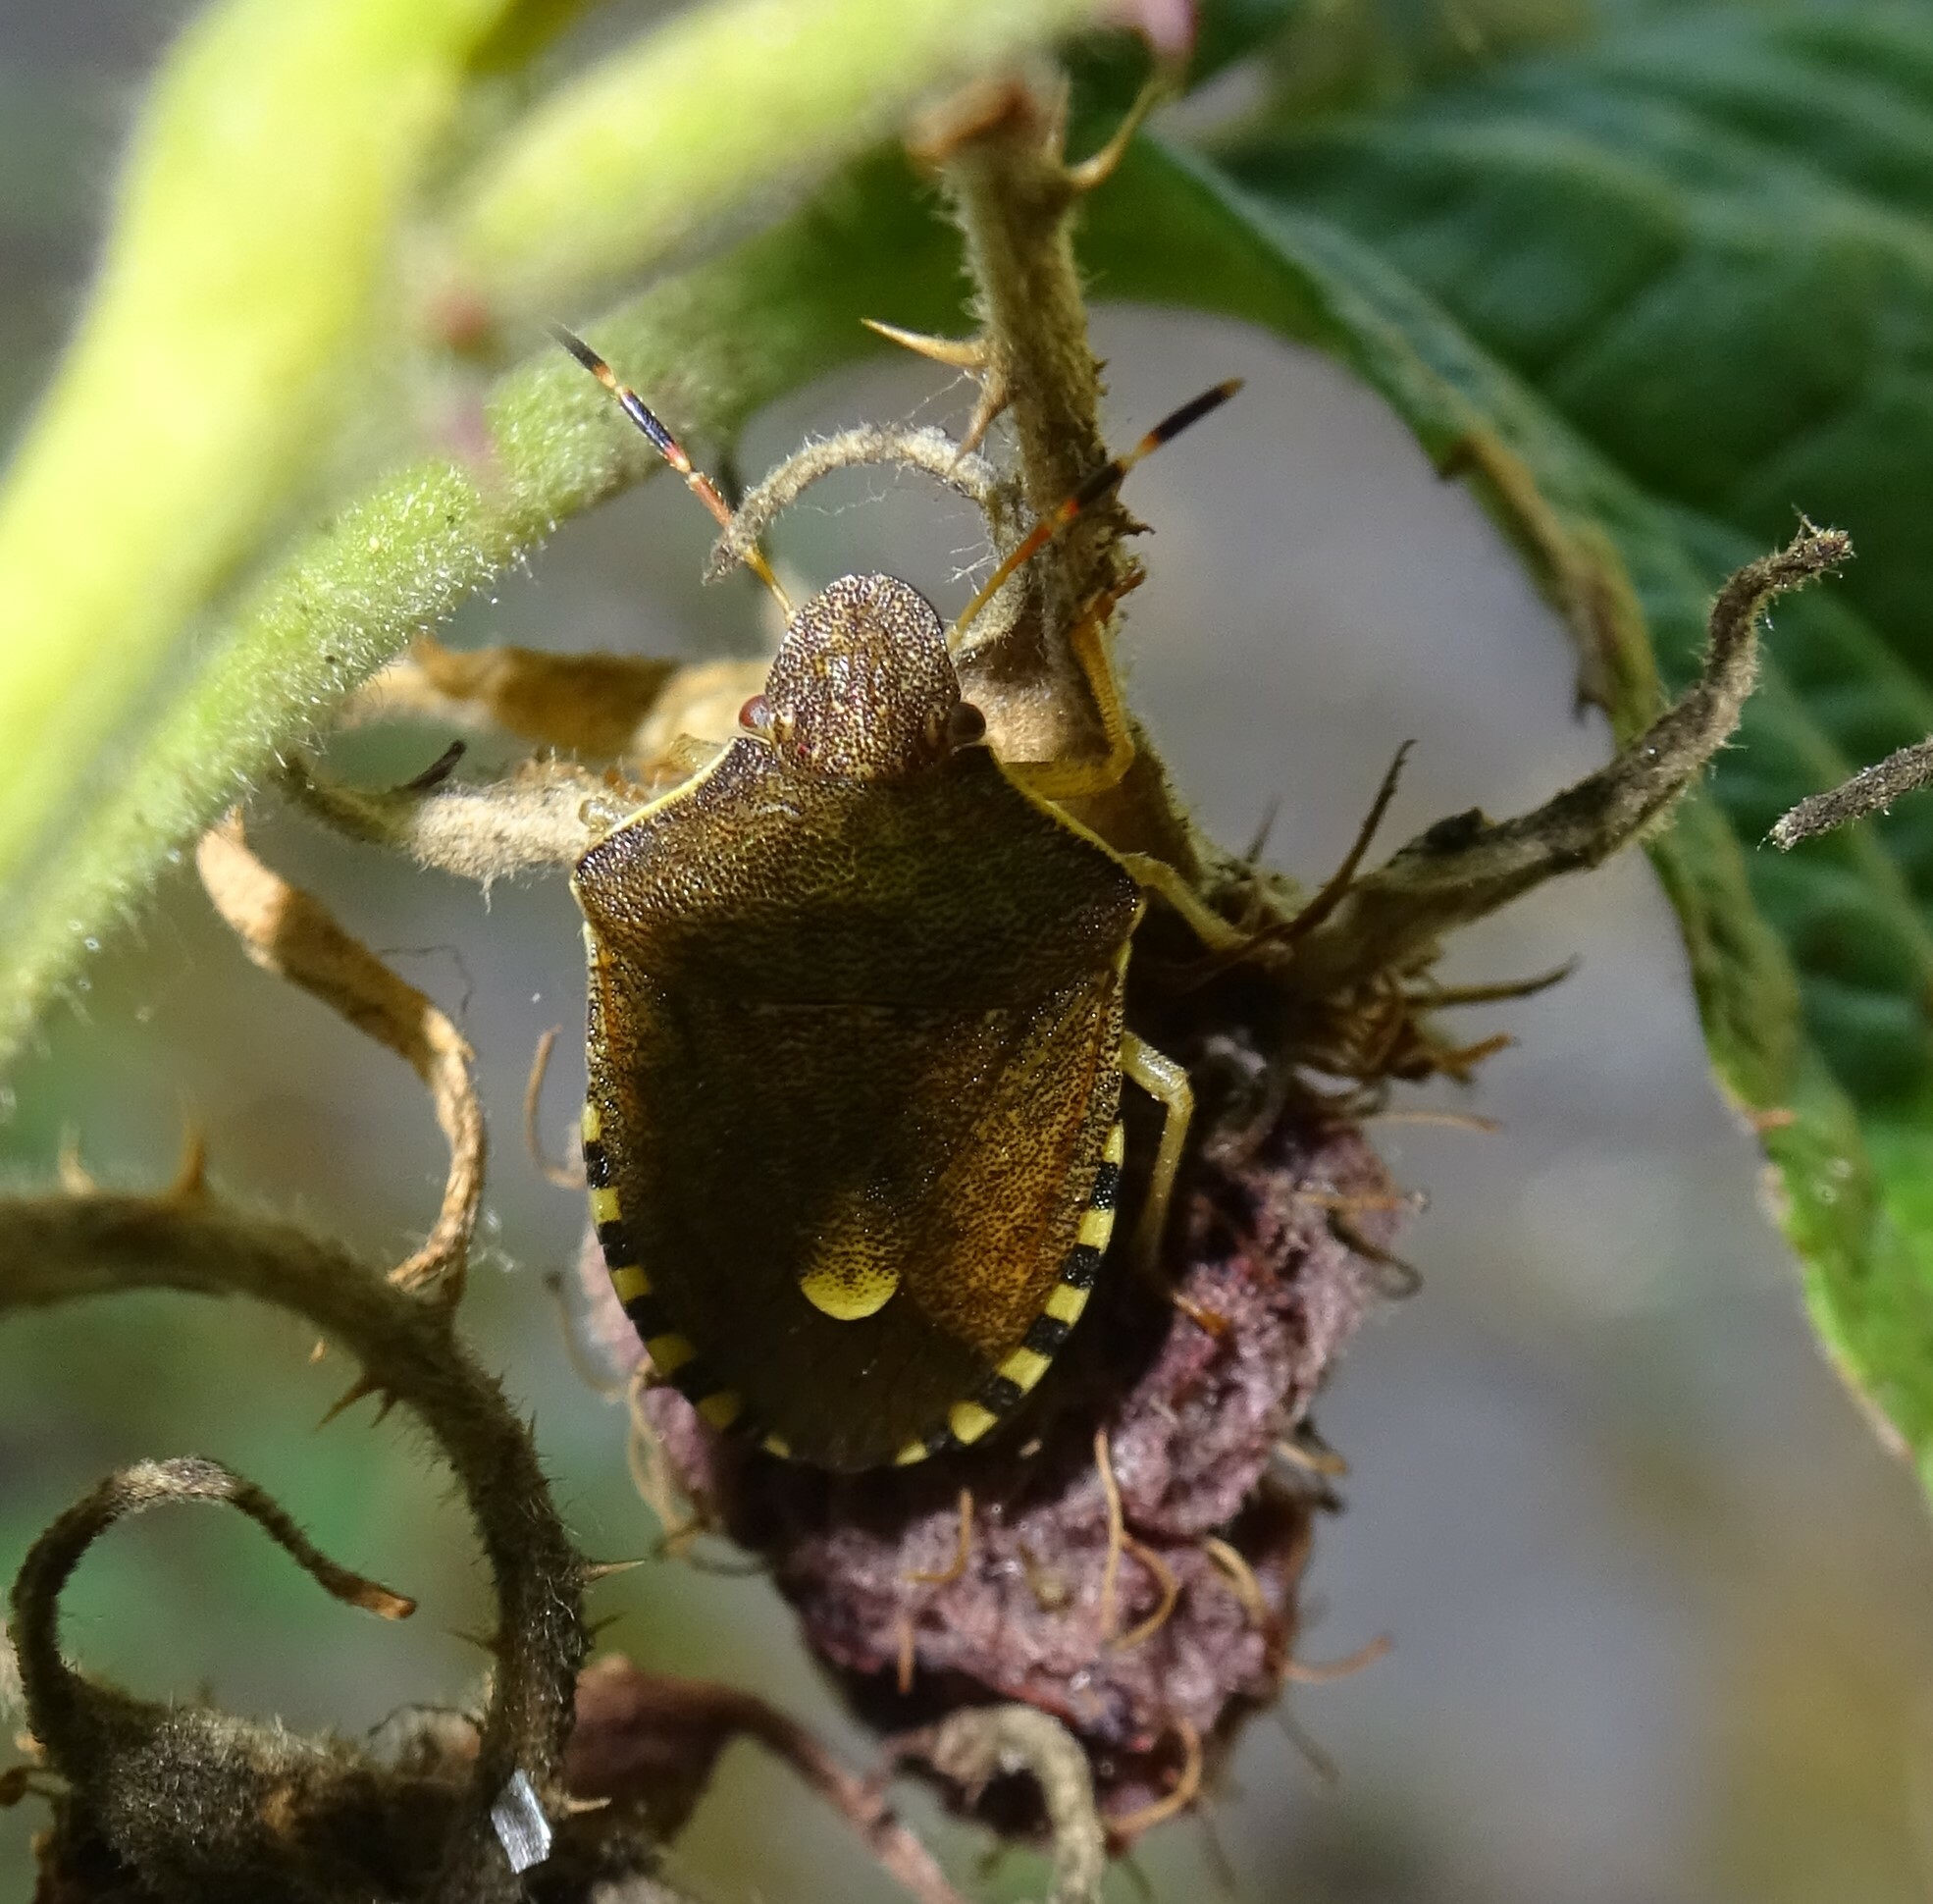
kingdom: Animalia
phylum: Arthropoda
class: Insecta
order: Hemiptera
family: Pentatomidae
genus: Holcostethus
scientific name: Holcostethus strictus
